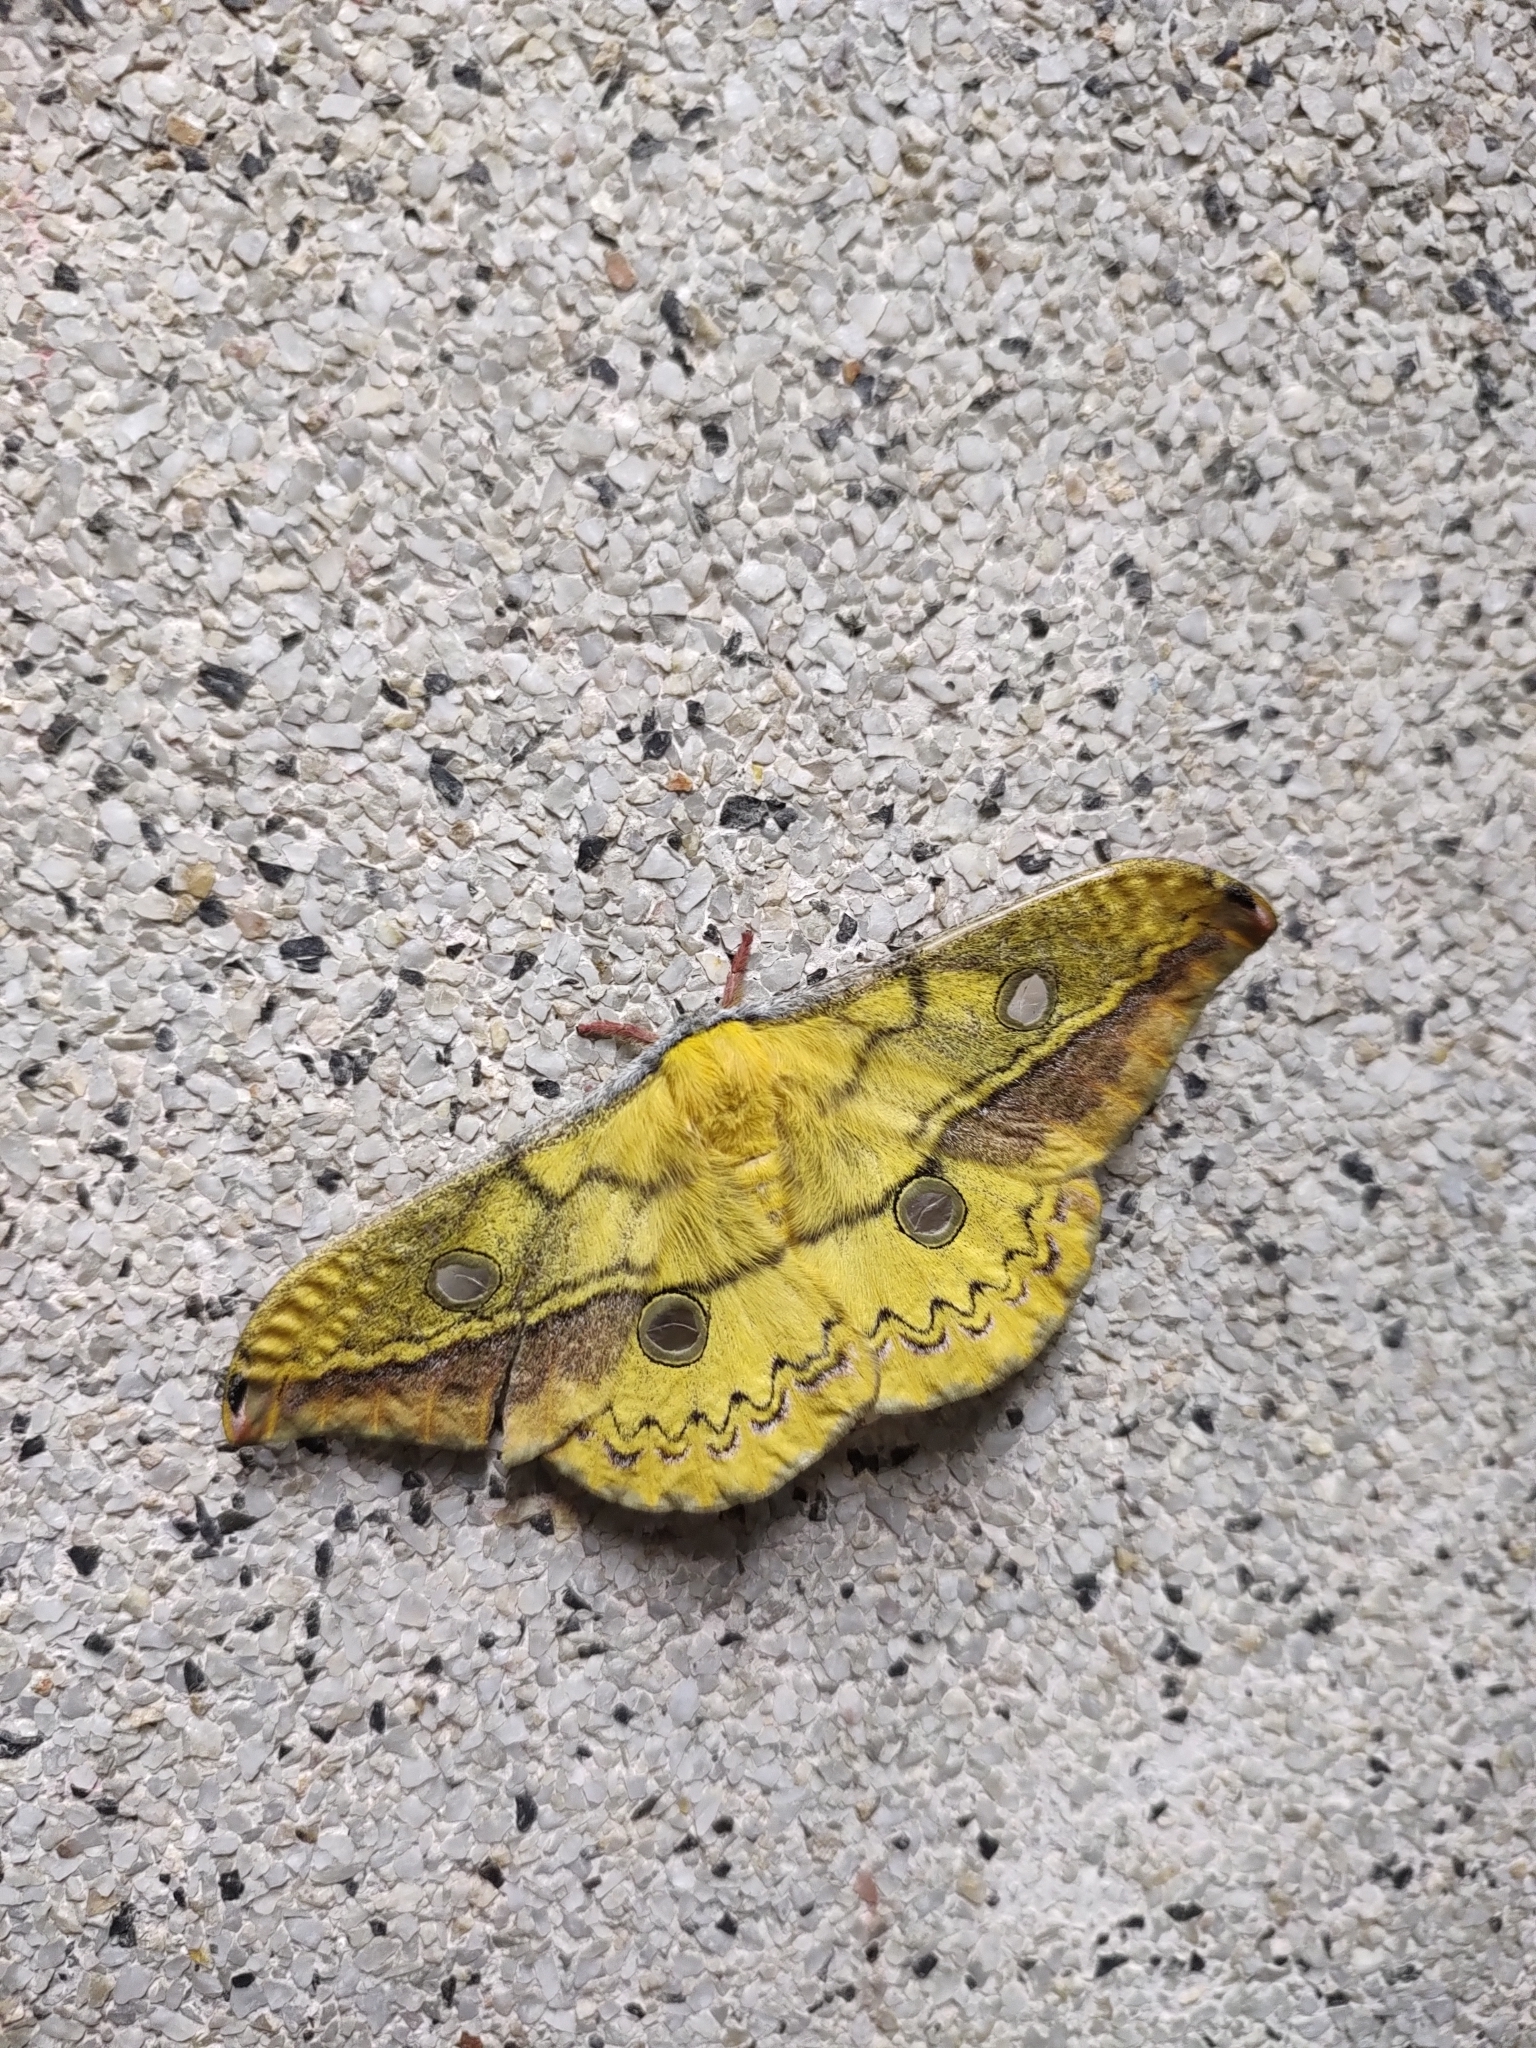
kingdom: Animalia
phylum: Arthropoda
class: Insecta
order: Lepidoptera
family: Saturniidae
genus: Copaxa
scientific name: Copaxa flavina
